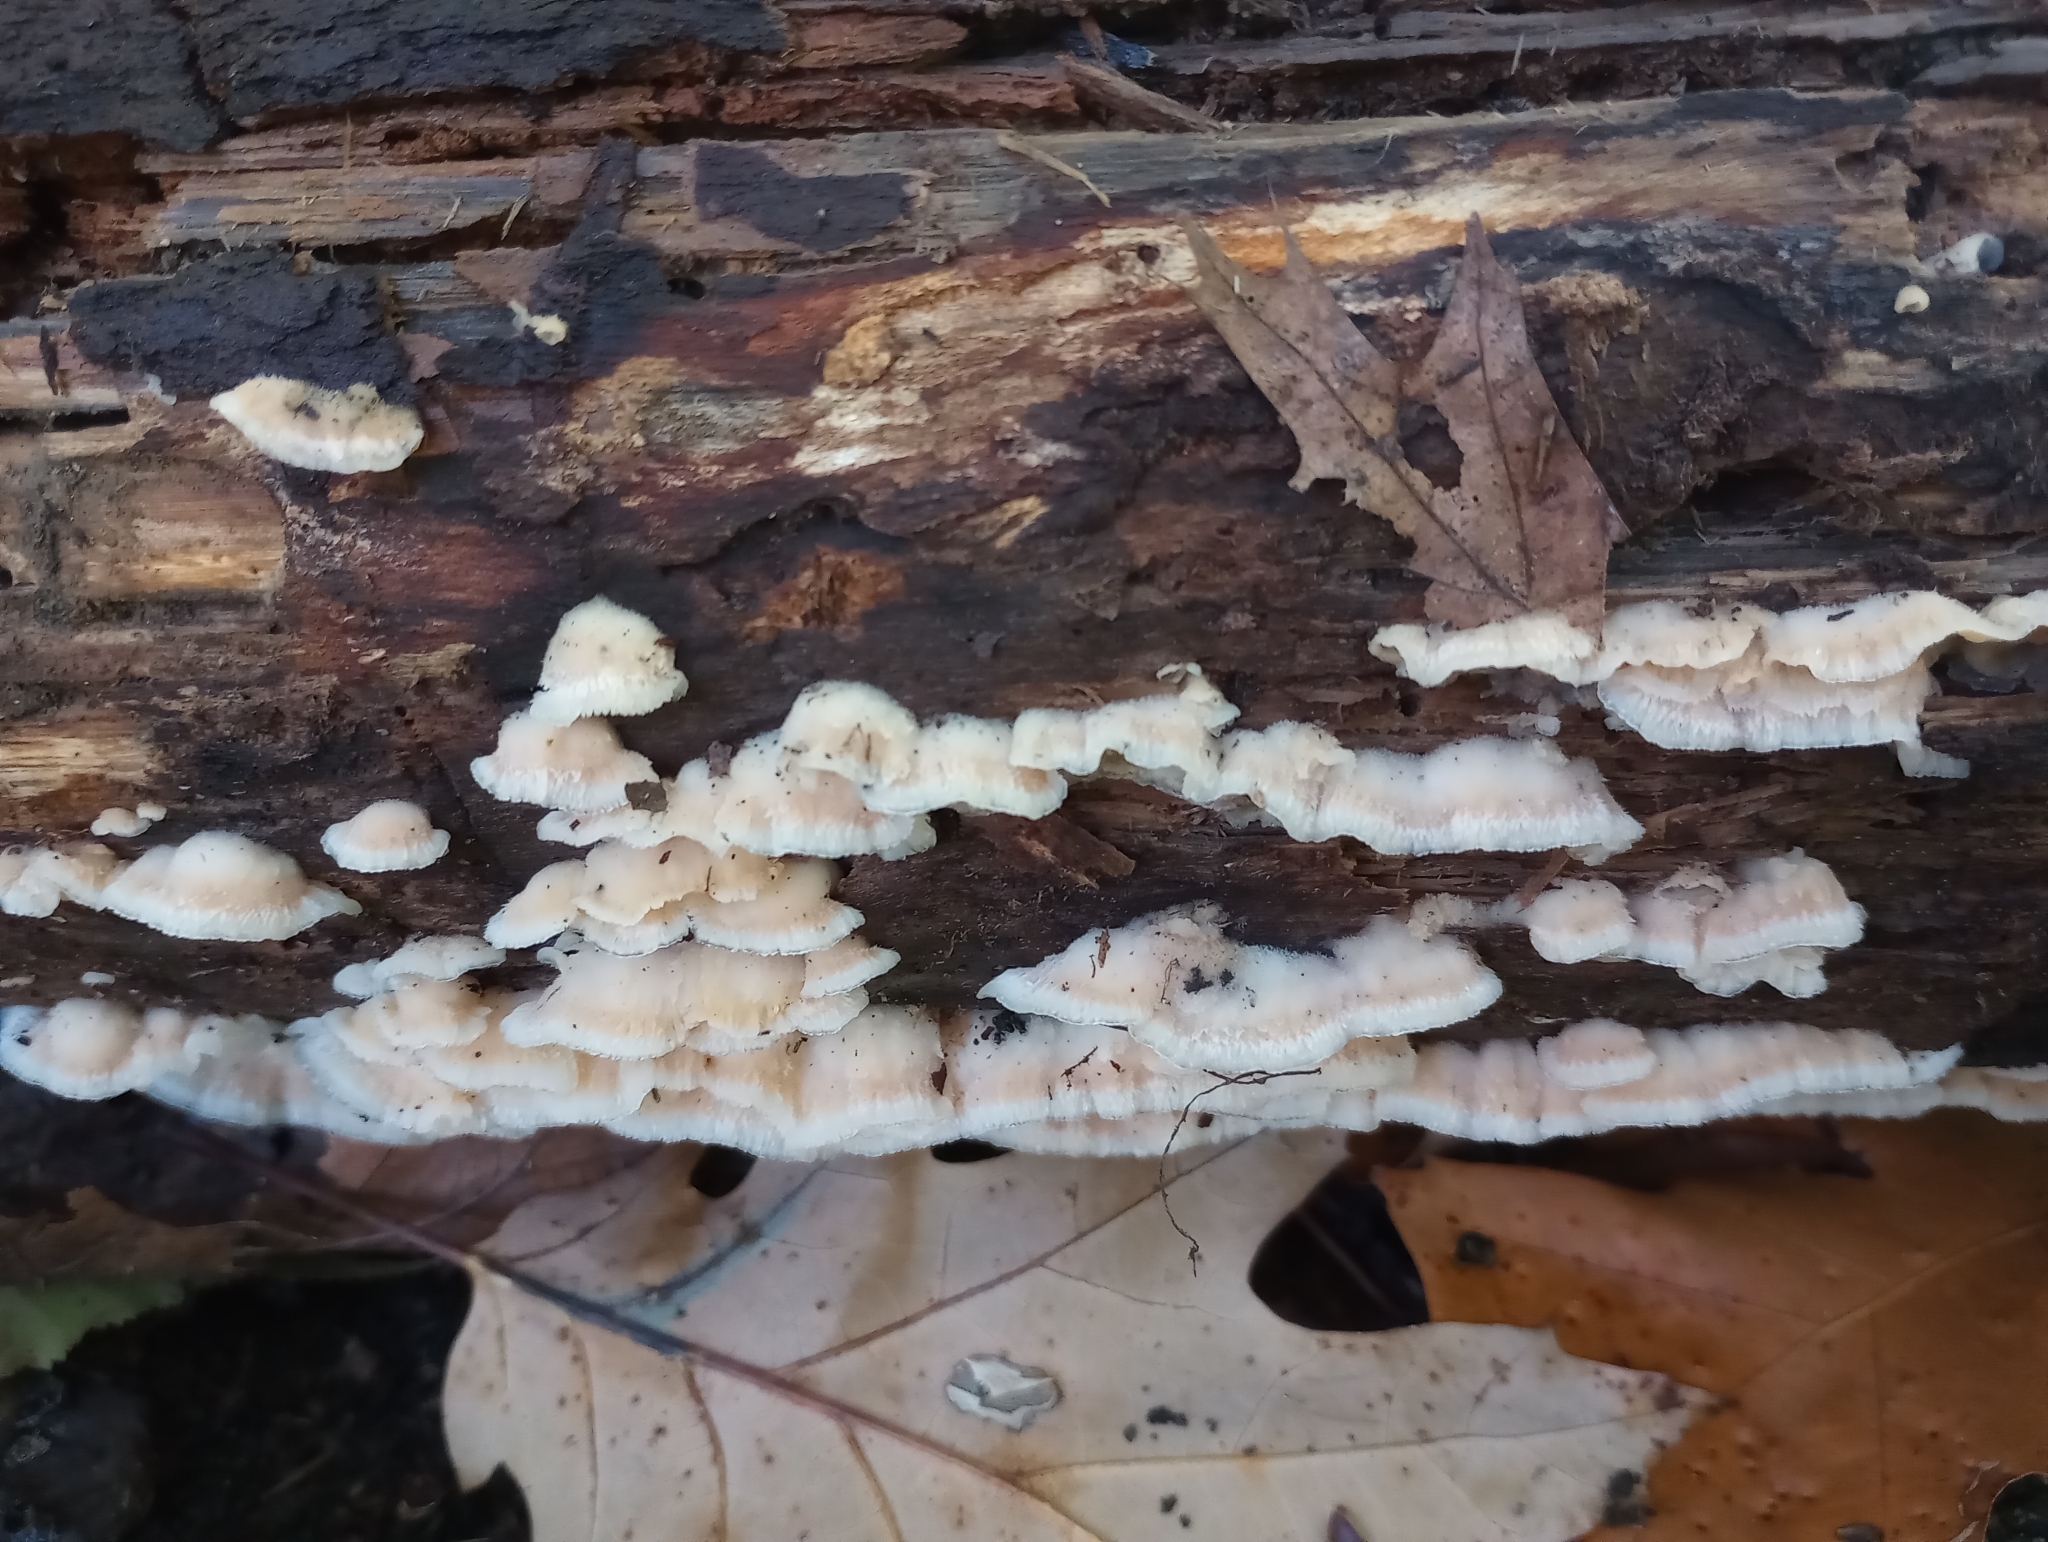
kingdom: Fungi
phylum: Basidiomycota
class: Agaricomycetes
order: Polyporales
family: Meruliaceae
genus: Phlebia
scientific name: Phlebia tremellosa
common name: Jelly rot
